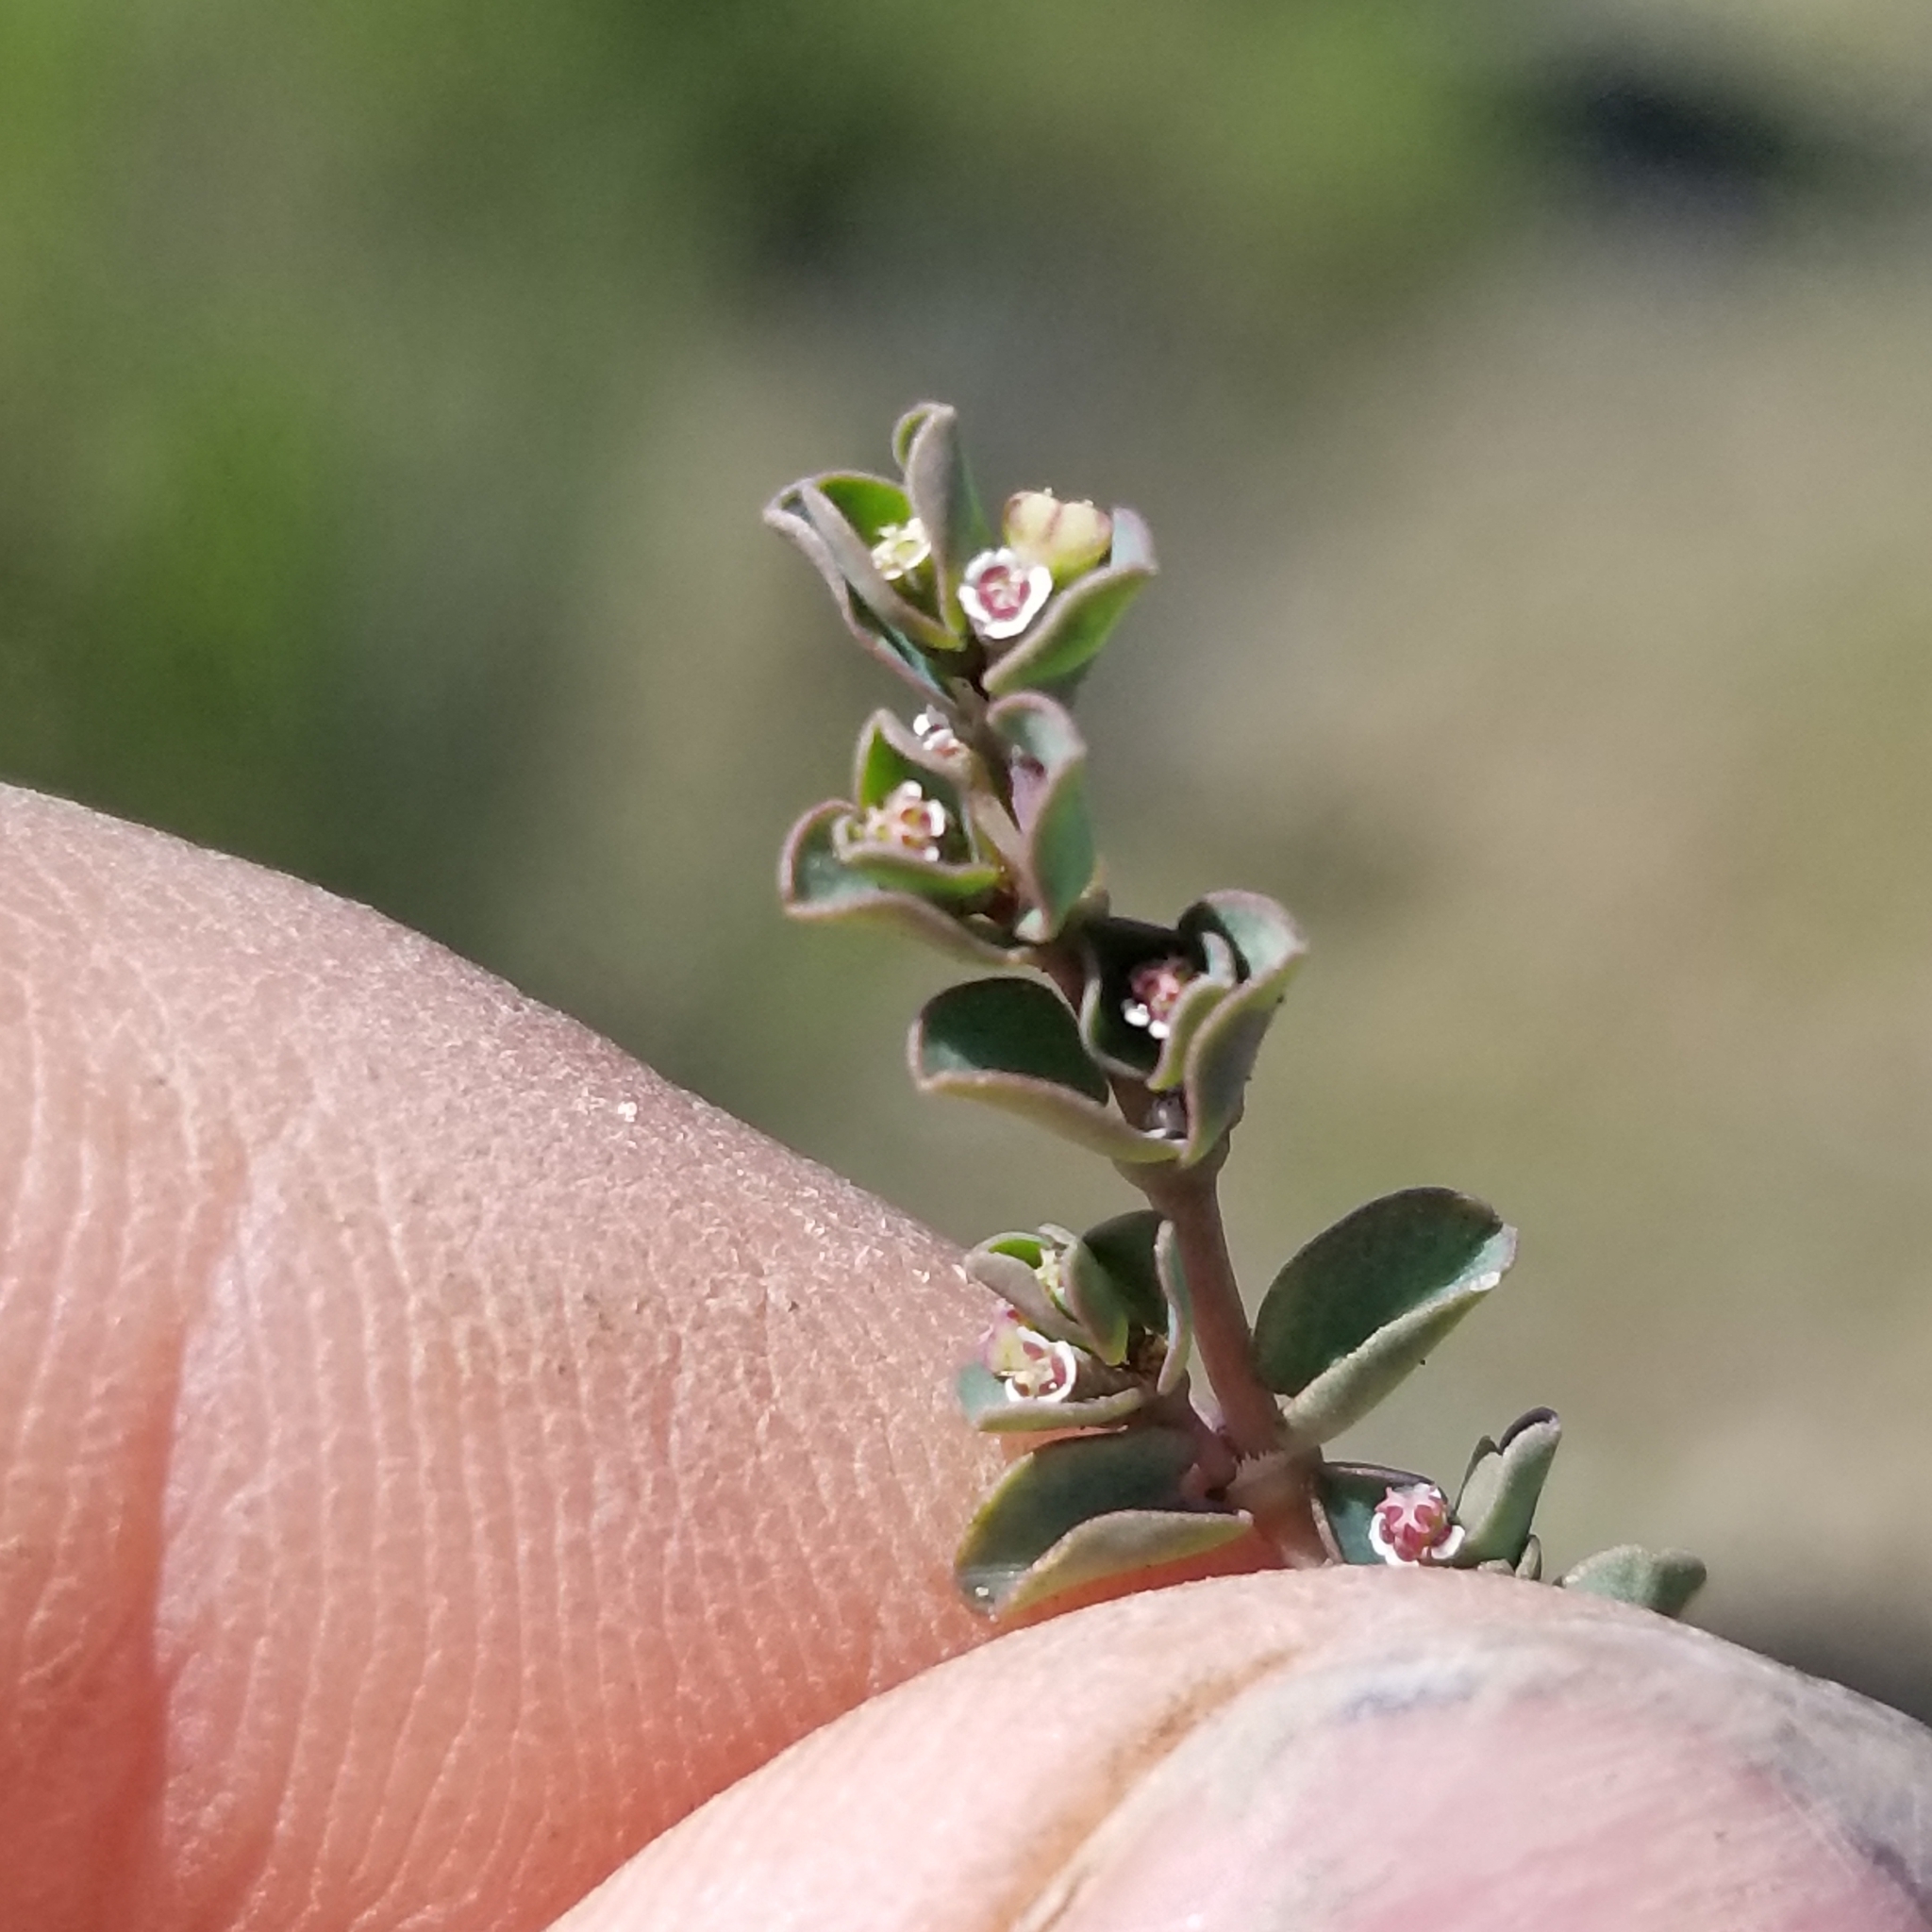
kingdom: Plantae
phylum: Tracheophyta
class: Magnoliopsida
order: Malpighiales
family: Euphorbiaceae
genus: Euphorbia
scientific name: Euphorbia serpens
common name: Matted sandmat
